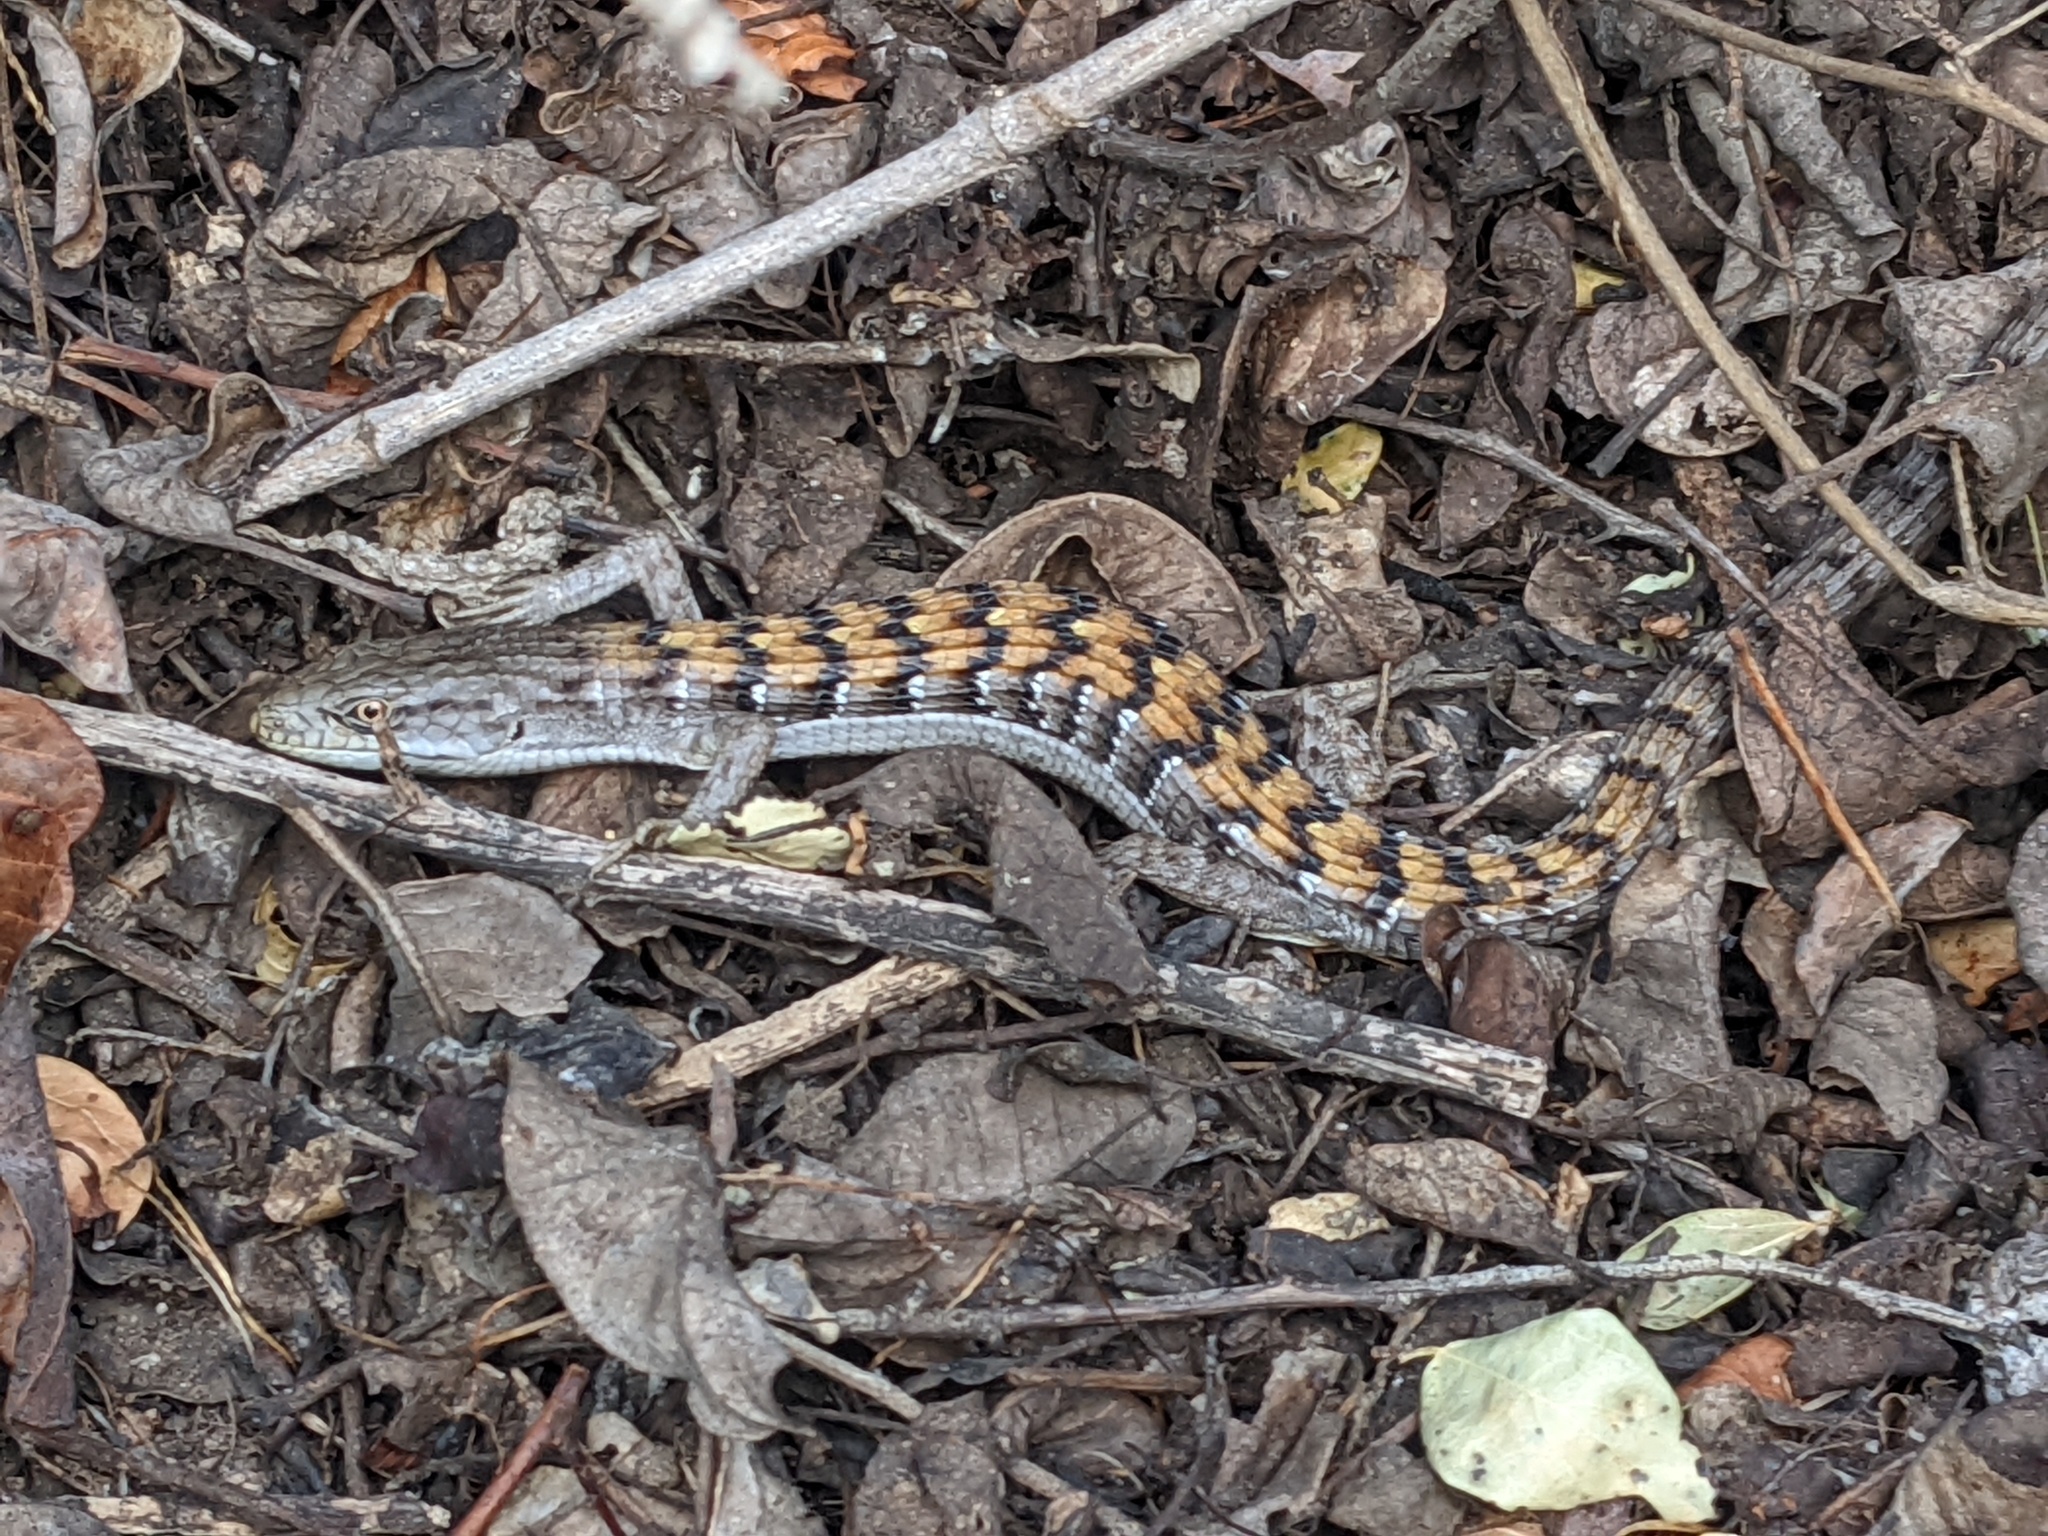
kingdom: Animalia
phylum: Chordata
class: Squamata
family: Anguidae
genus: Elgaria
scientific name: Elgaria multicarinata
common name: Southern alligator lizard
